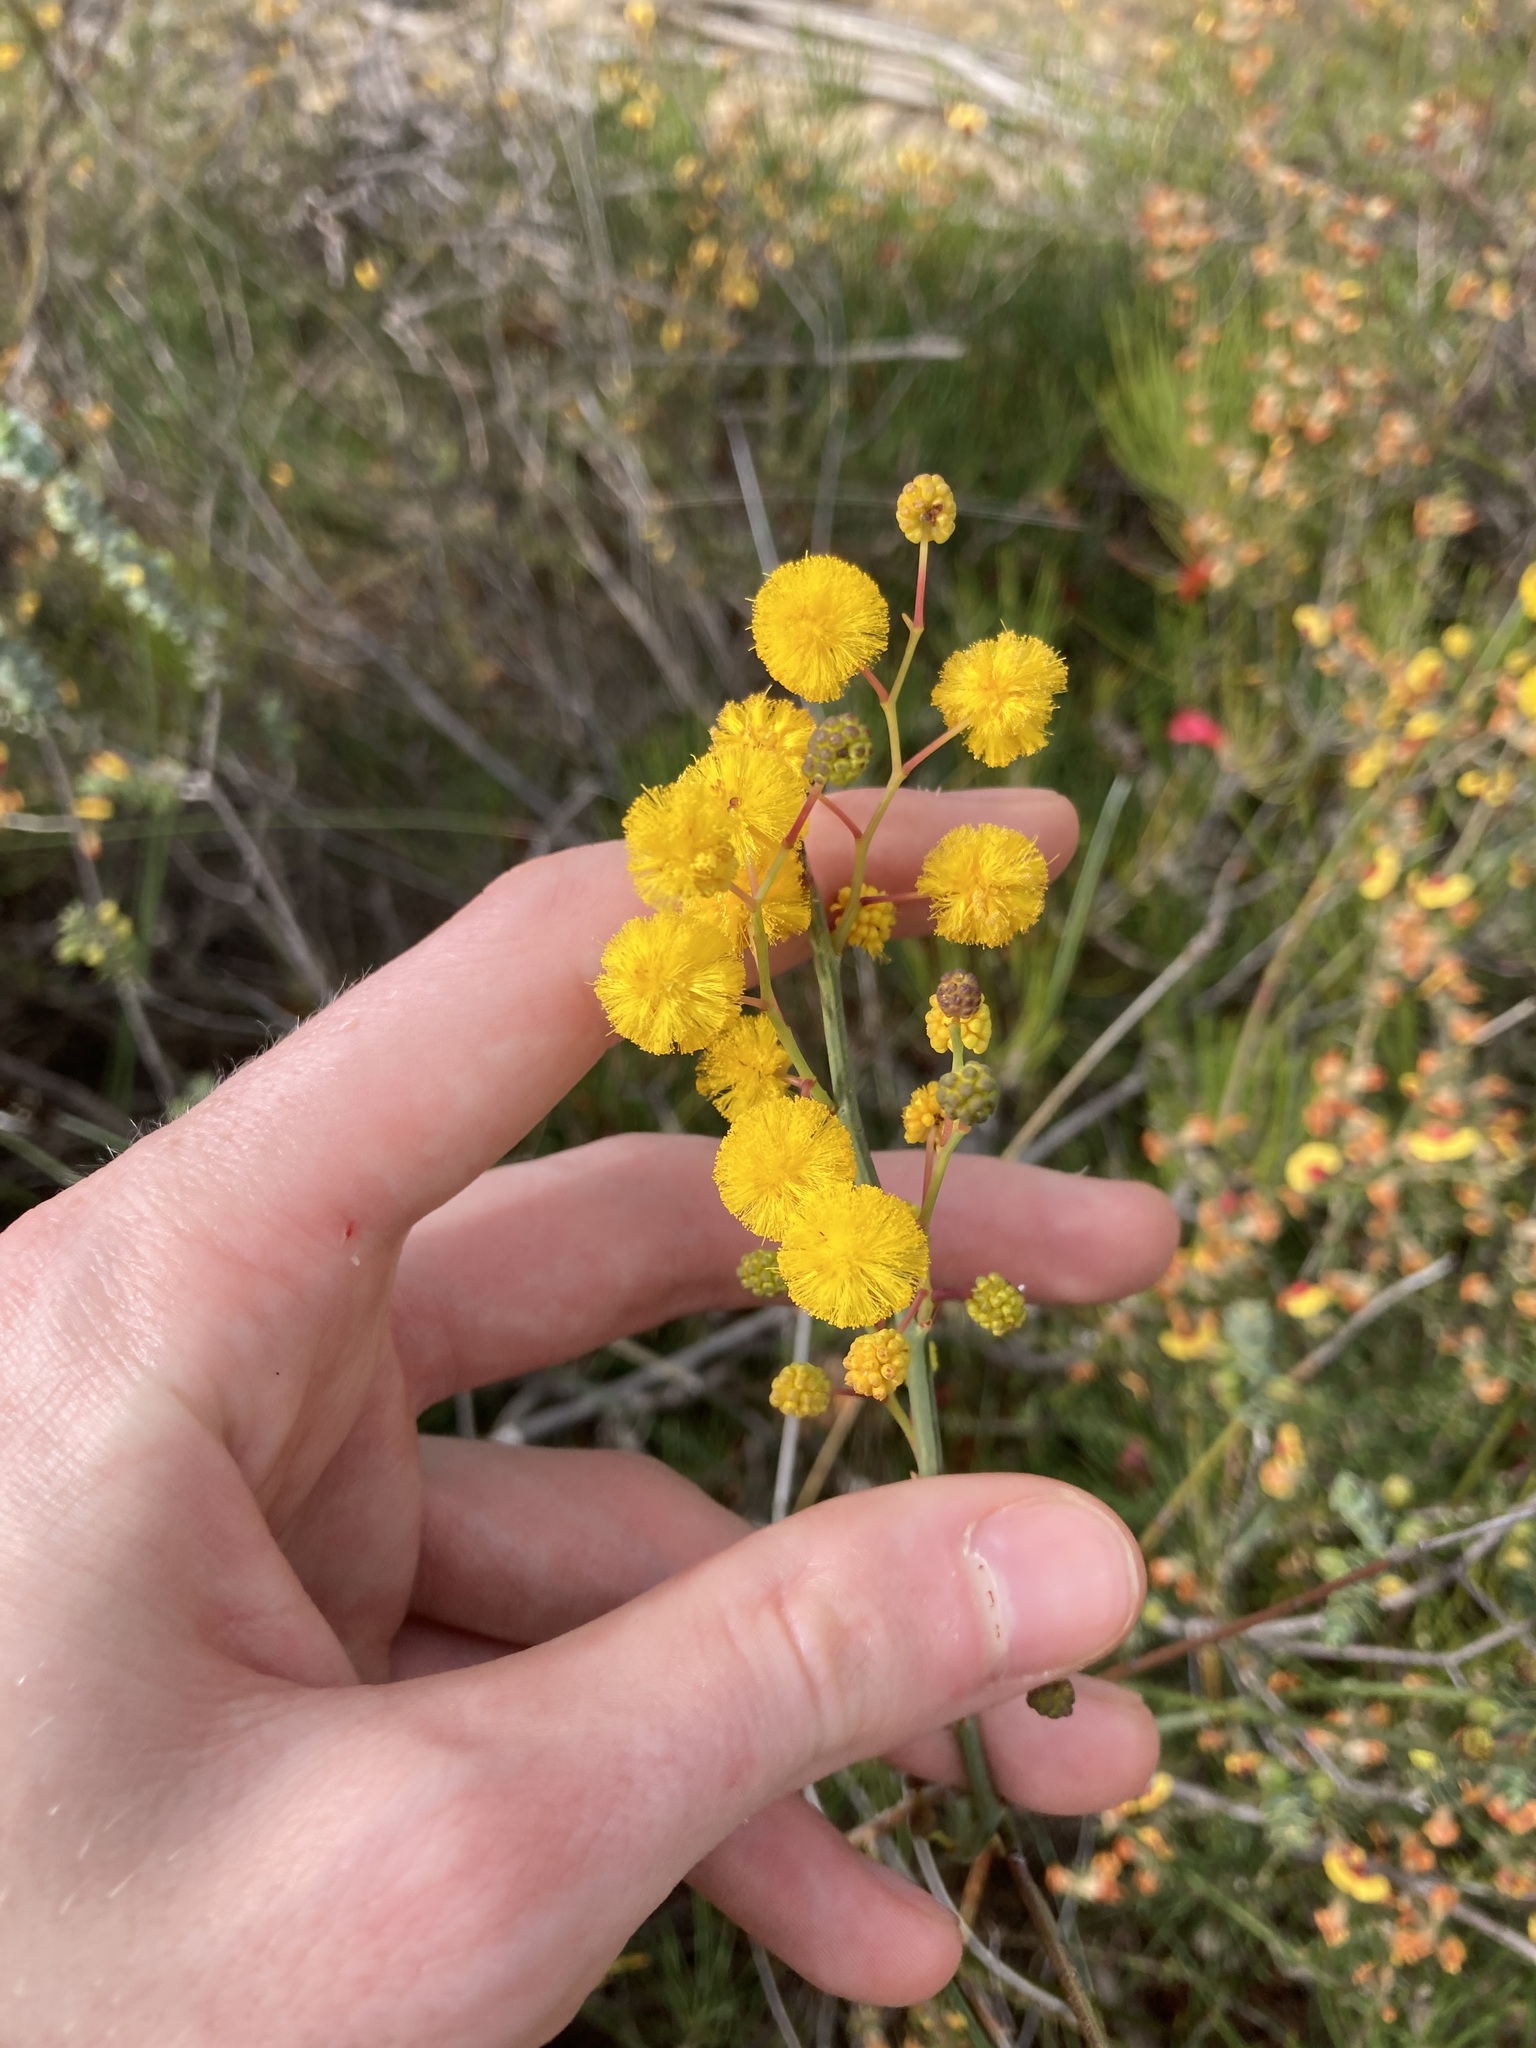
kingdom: Plantae
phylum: Tracheophyta
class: Magnoliopsida
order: Fabales
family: Fabaceae
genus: Acacia
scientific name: Acacia restiacea
